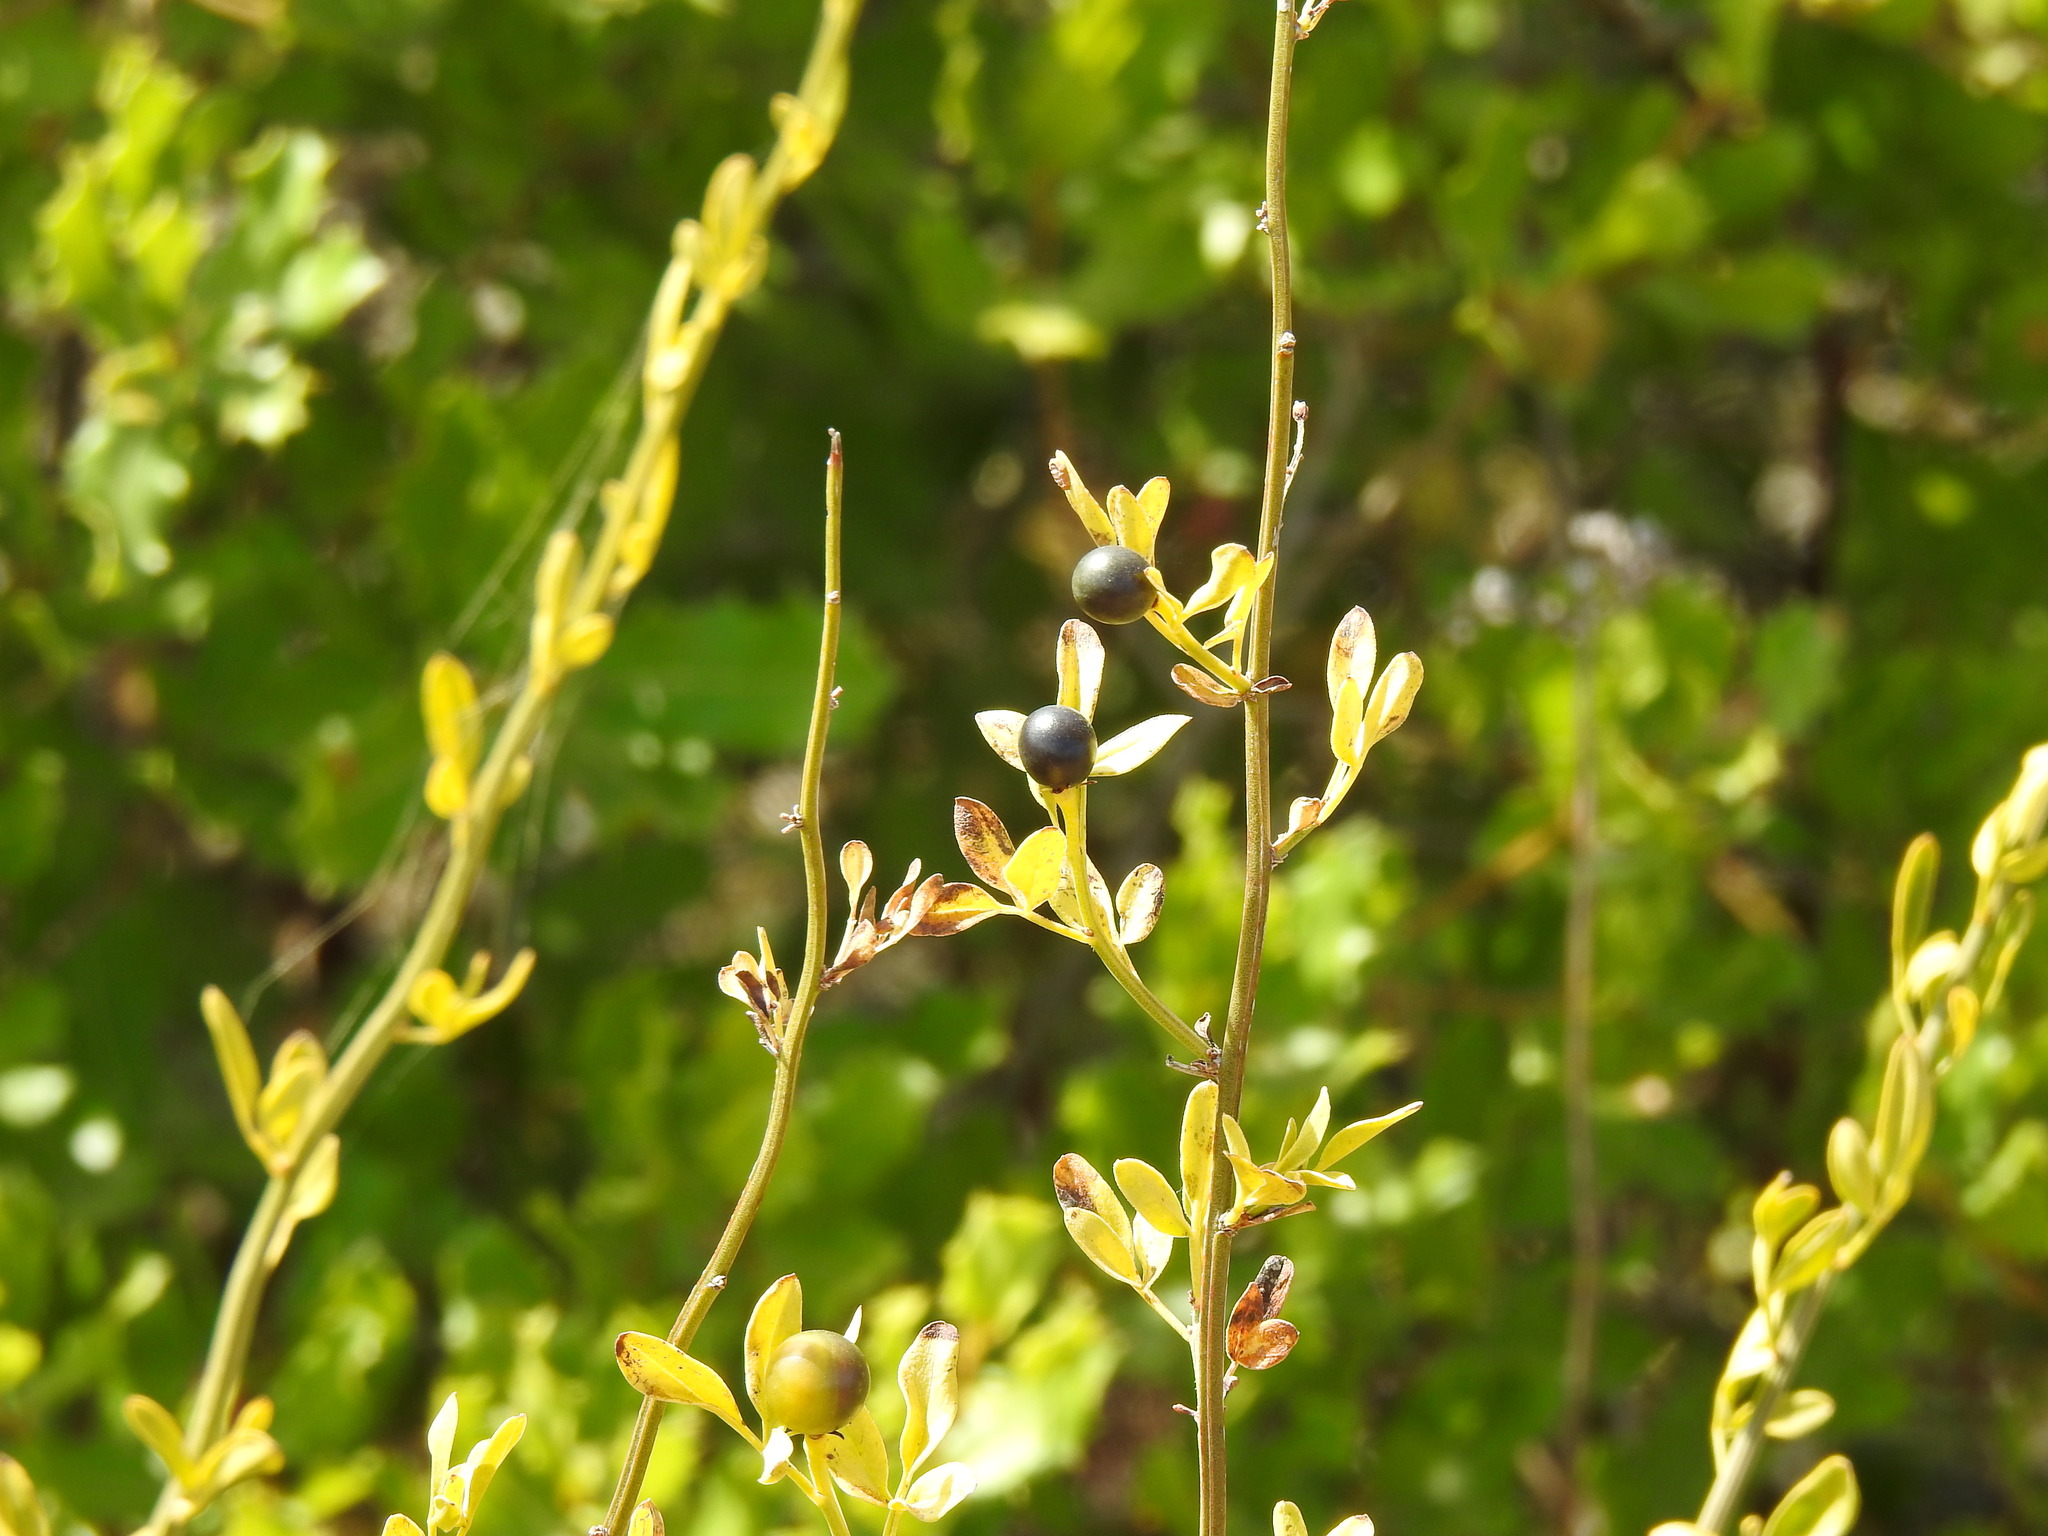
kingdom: Plantae
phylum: Tracheophyta
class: Magnoliopsida
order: Lamiales
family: Oleaceae
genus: Chrysojasminum
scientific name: Chrysojasminum fruticans
